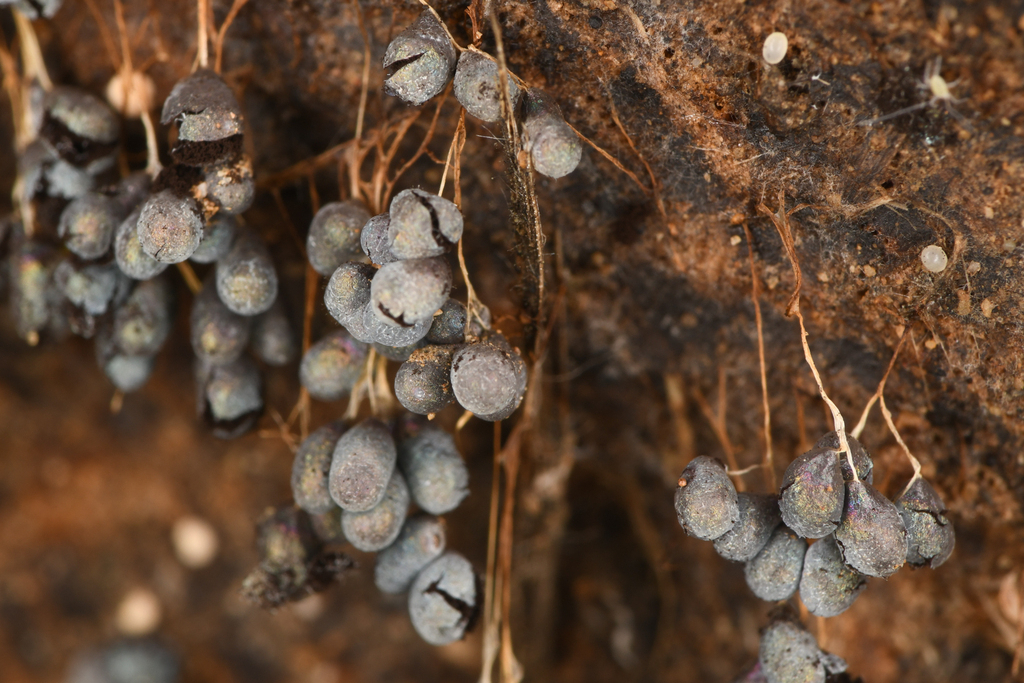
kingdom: Protozoa
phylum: Mycetozoa
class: Myxomycetes
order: Physarales
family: Physaraceae
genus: Badhamia
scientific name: Badhamia utricularis
